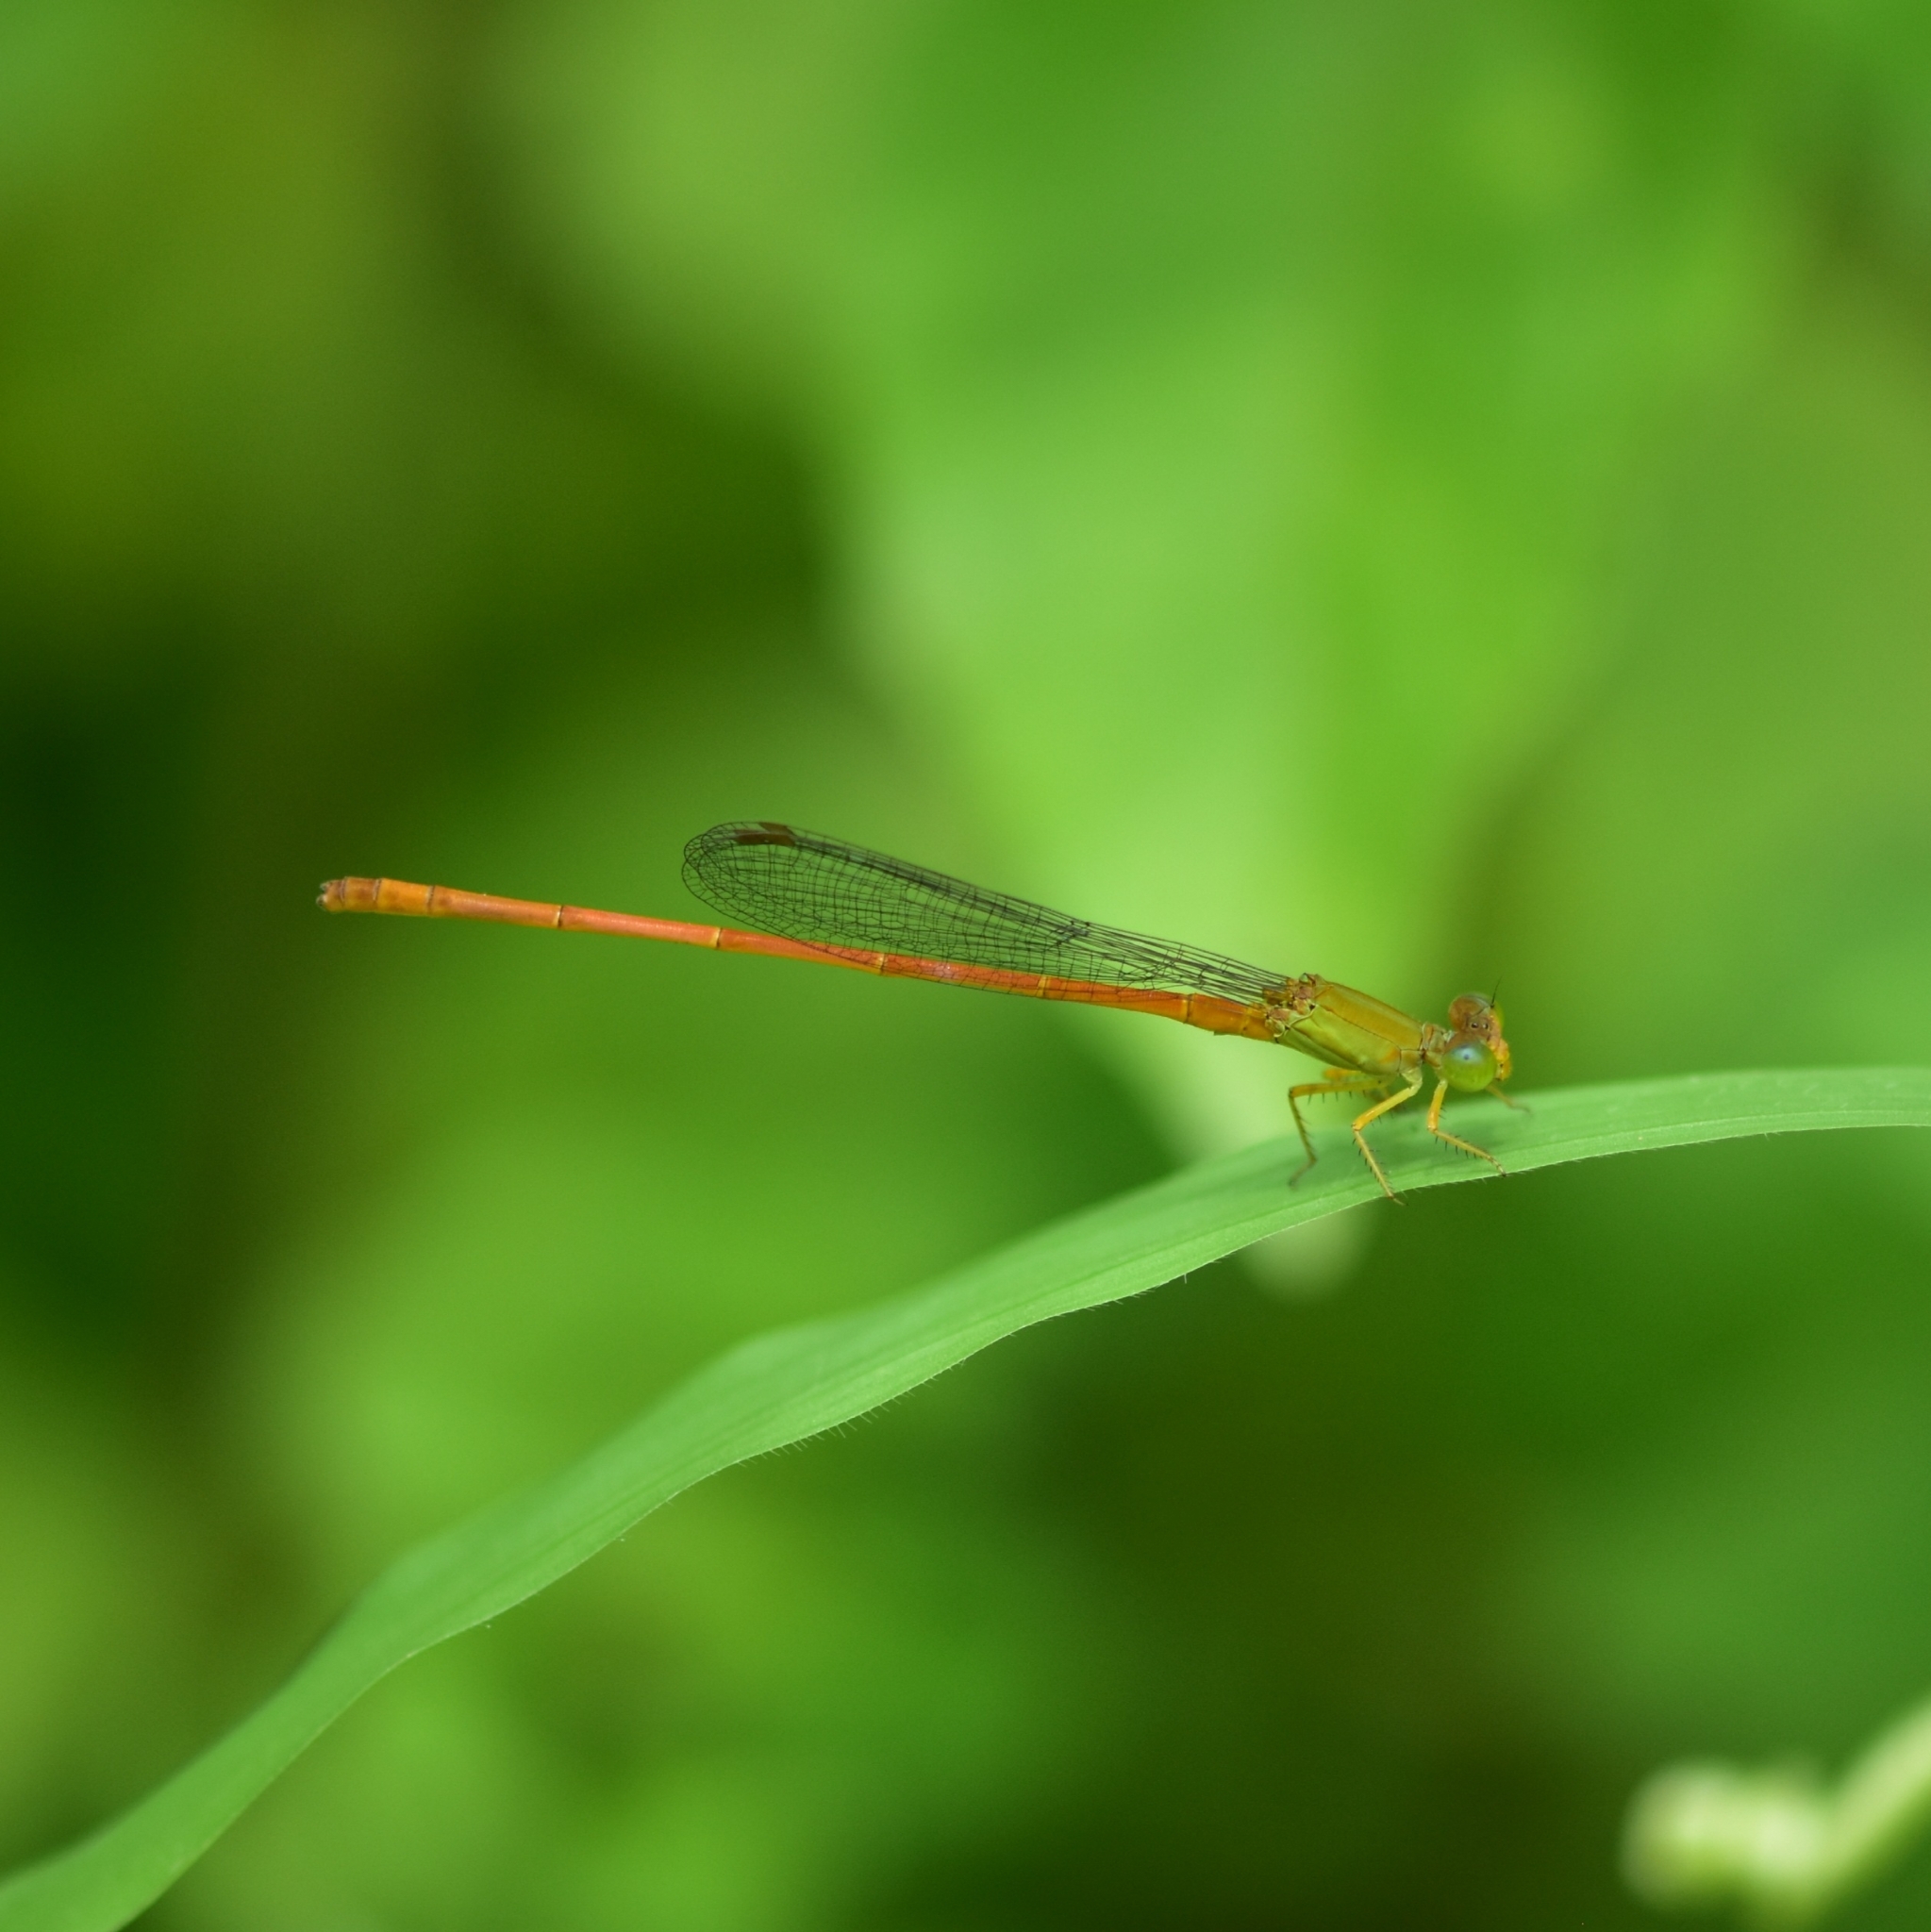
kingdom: Animalia
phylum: Arthropoda
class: Insecta
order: Odonata
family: Coenagrionidae
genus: Ceriagrion
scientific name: Ceriagrion rubiae
